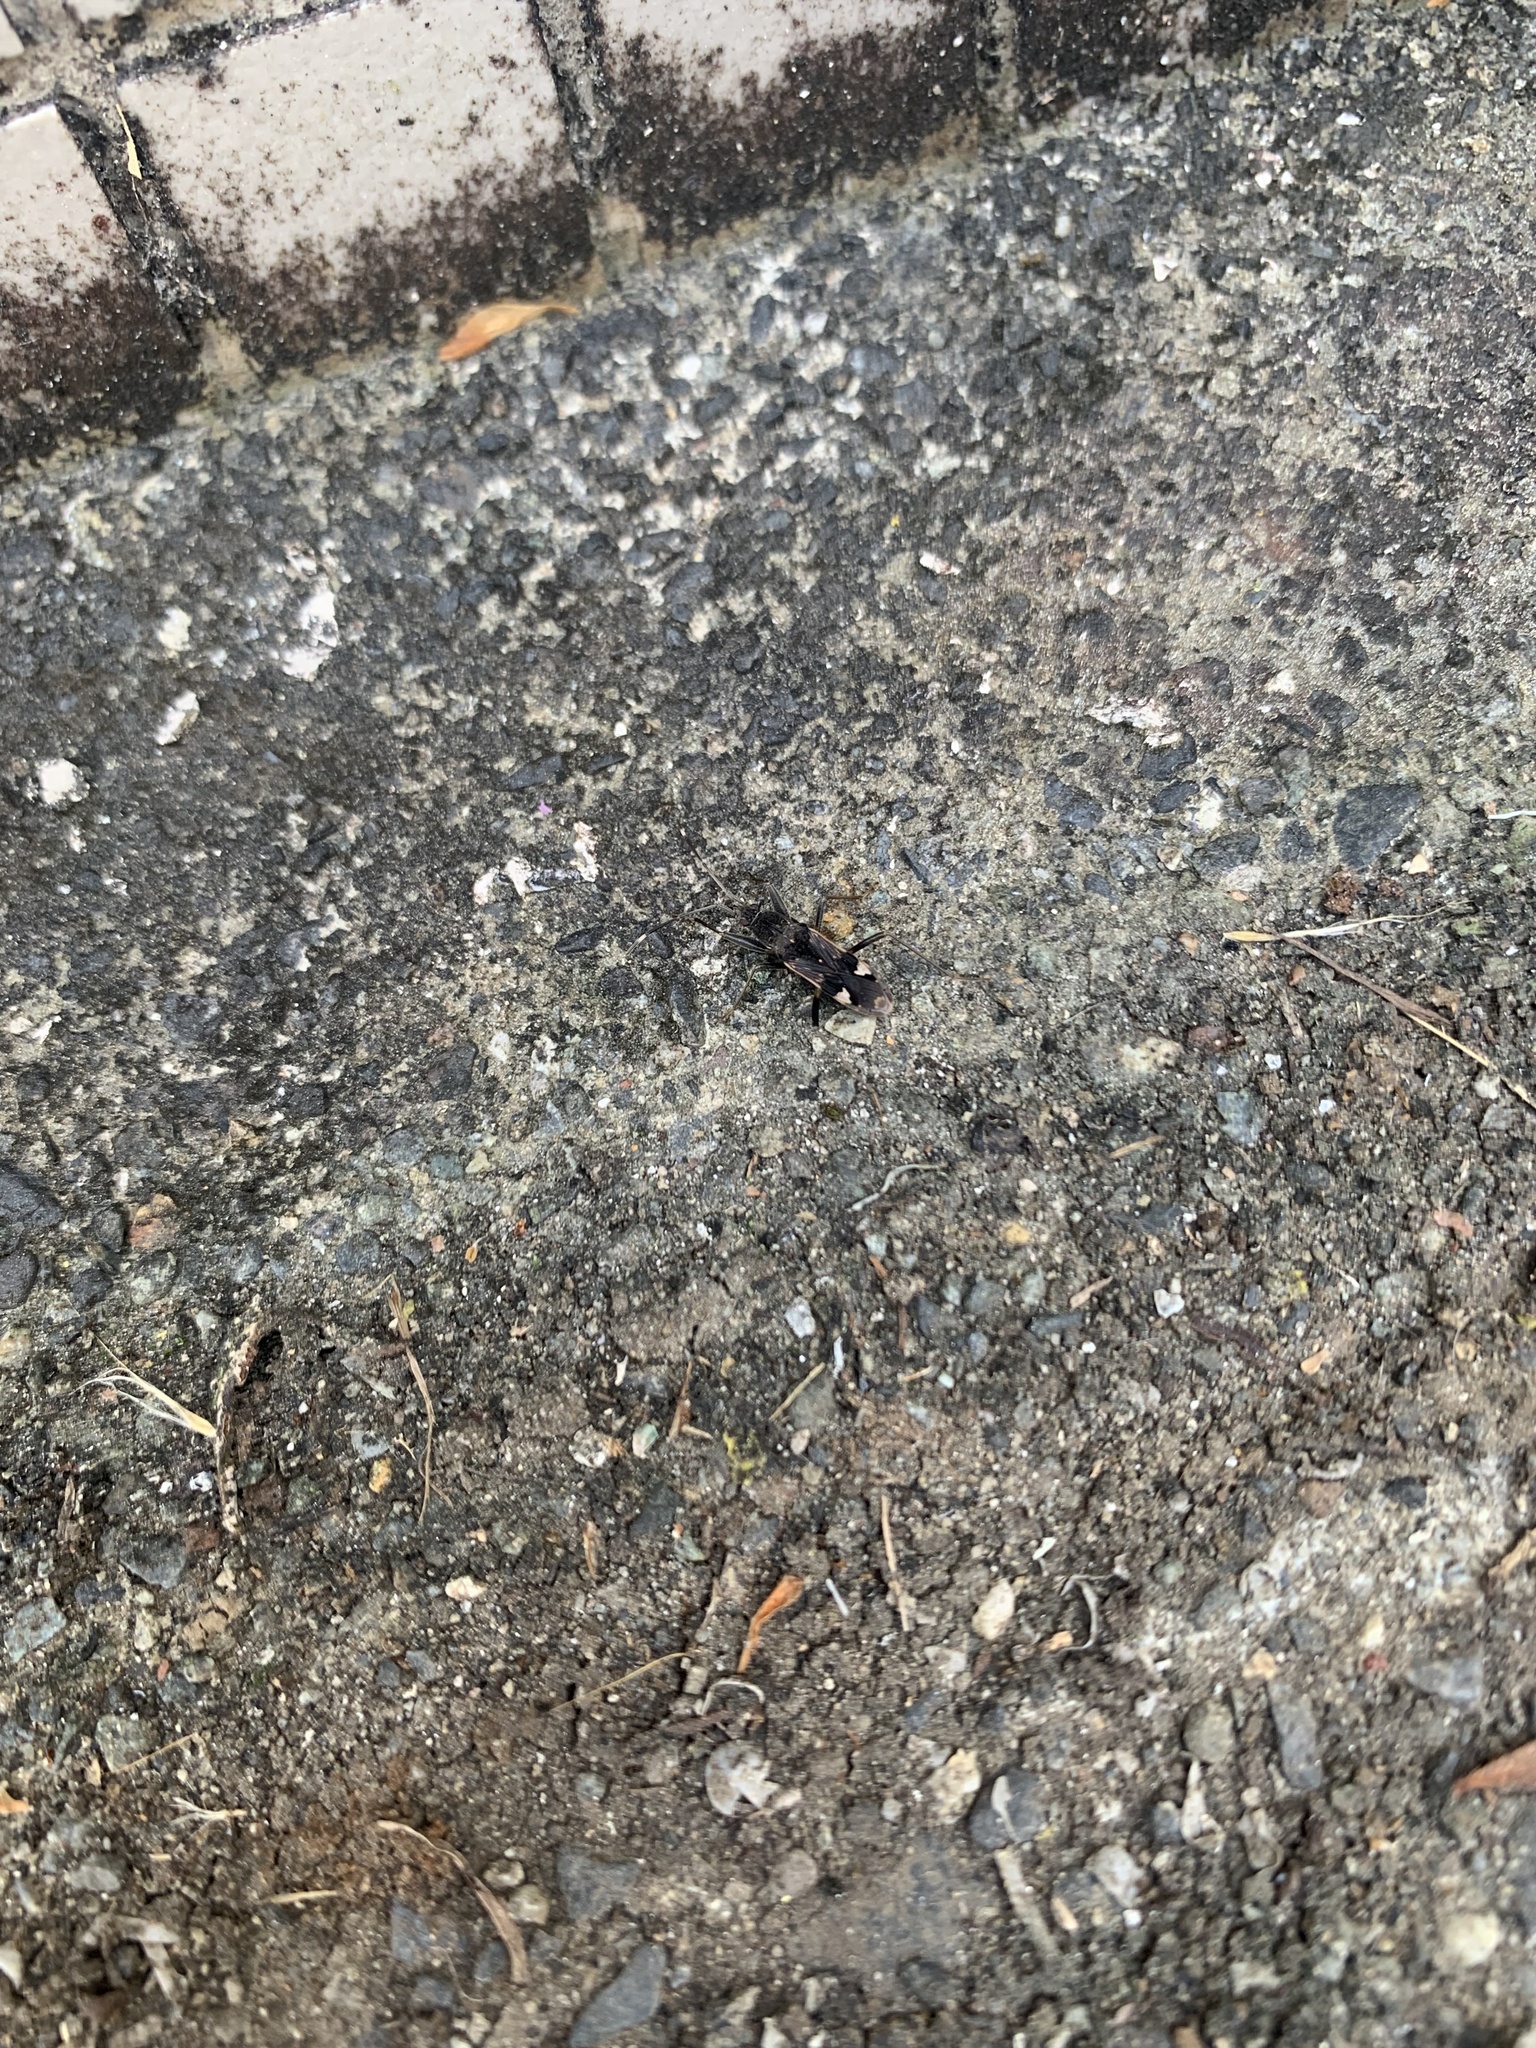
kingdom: Animalia
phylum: Arthropoda
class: Insecta
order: Hemiptera
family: Rhyparochromidae
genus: Metochus
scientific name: Metochus abbreviatus
